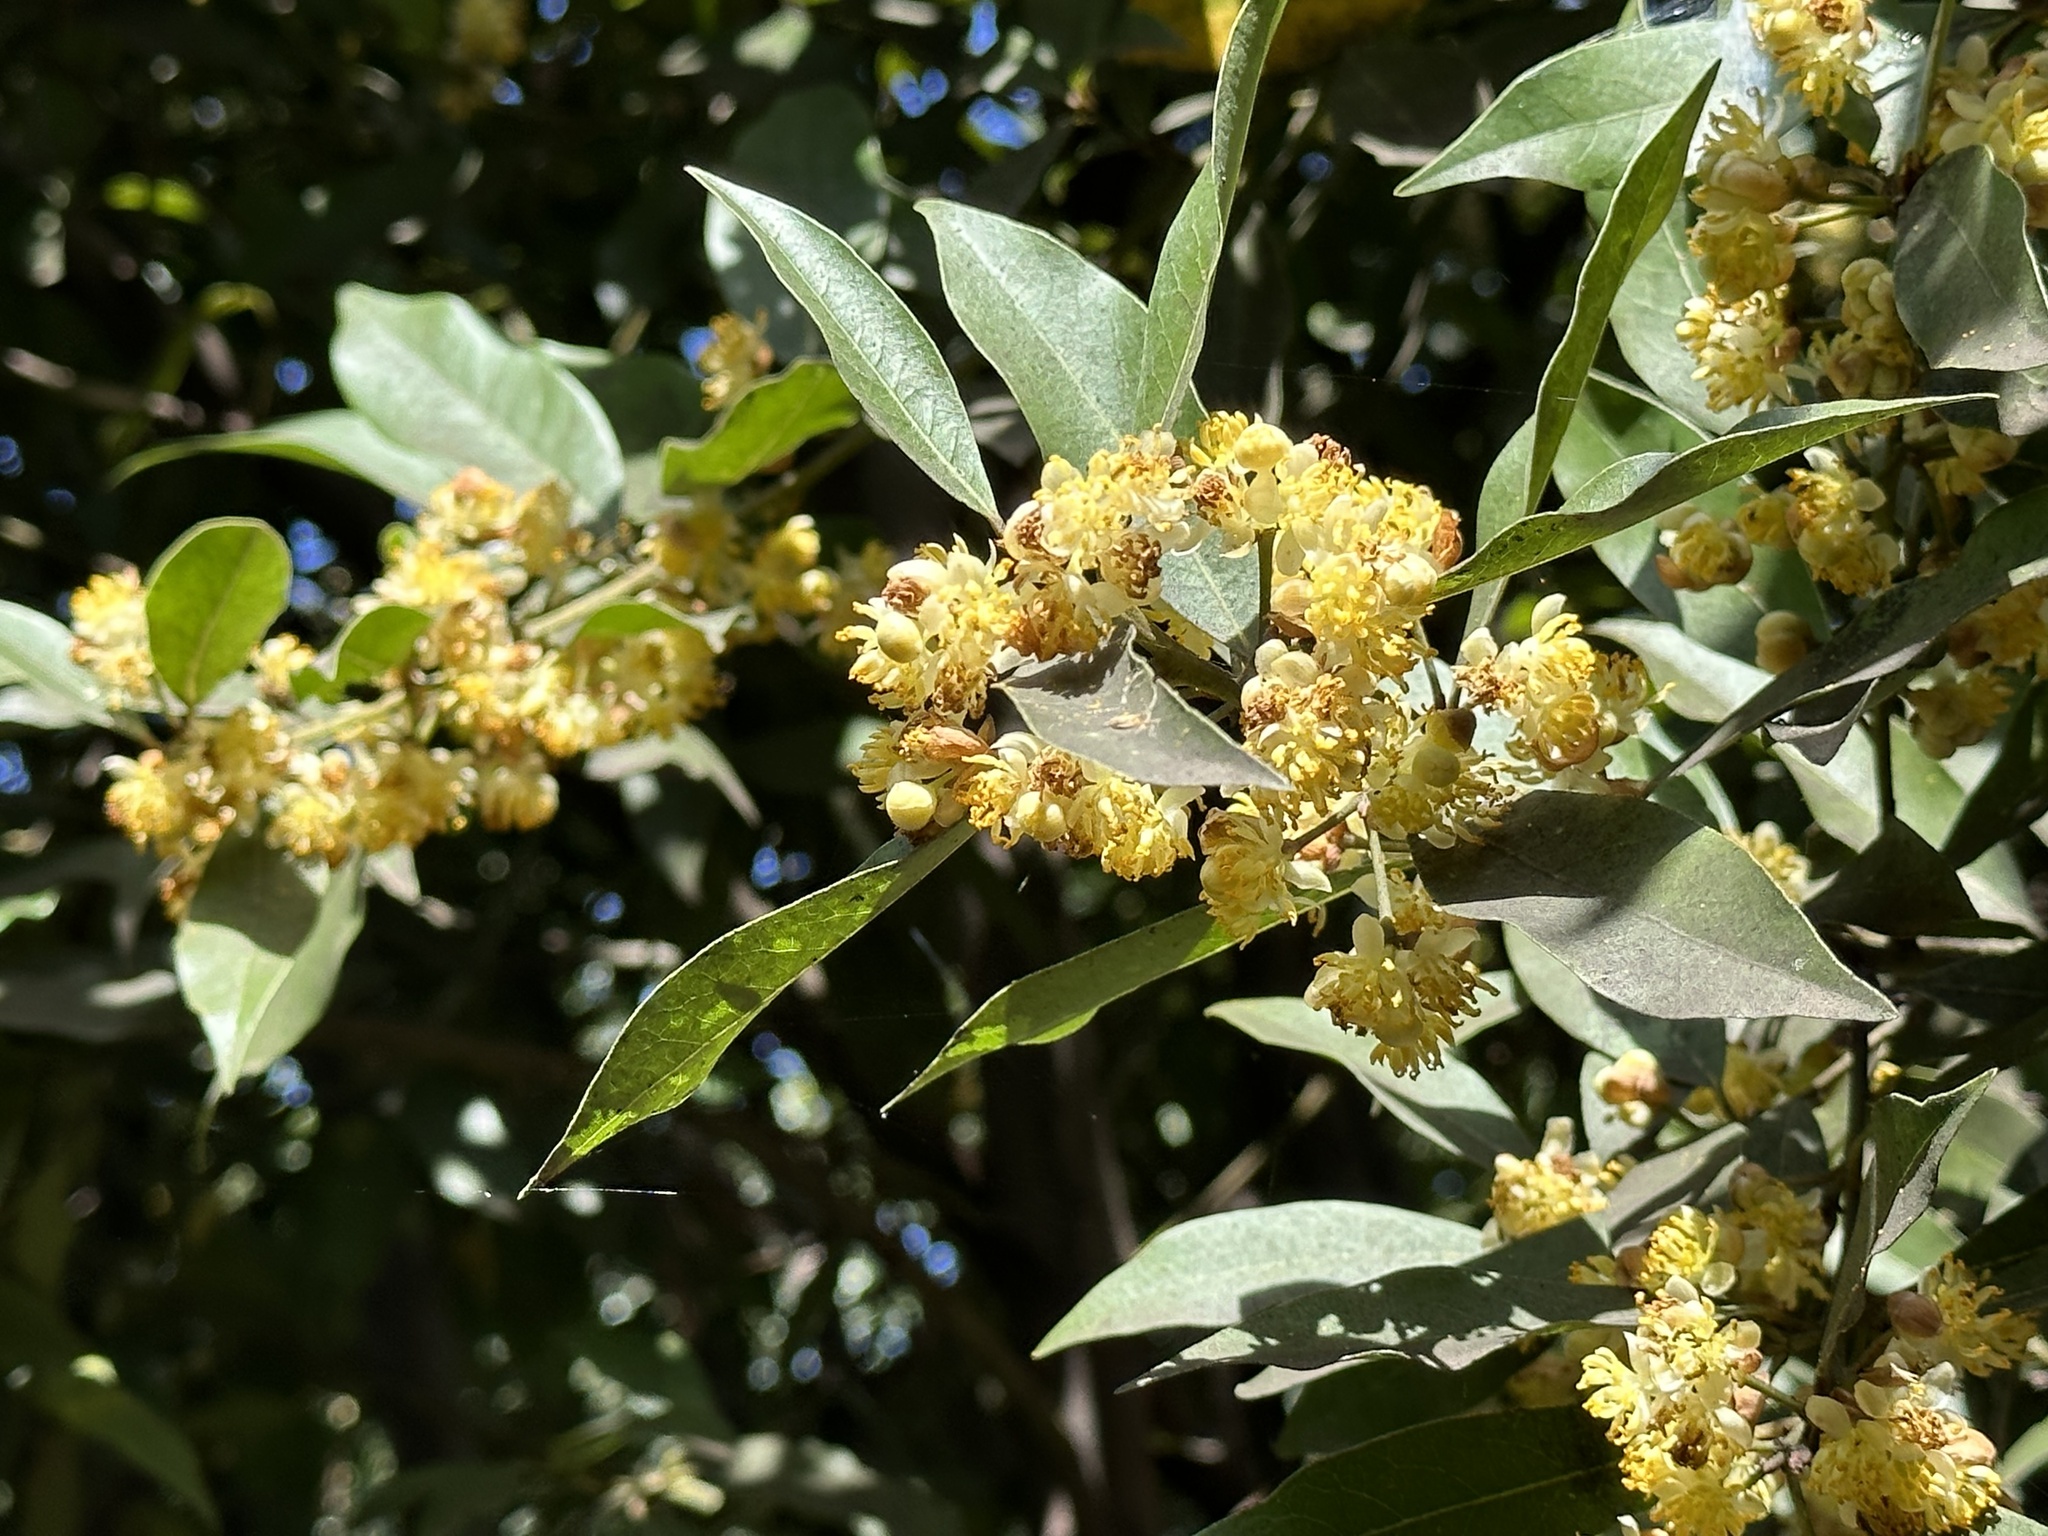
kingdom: Plantae
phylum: Tracheophyta
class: Magnoliopsida
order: Laurales
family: Lauraceae
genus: Laurus
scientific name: Laurus nobilis
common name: Bay
